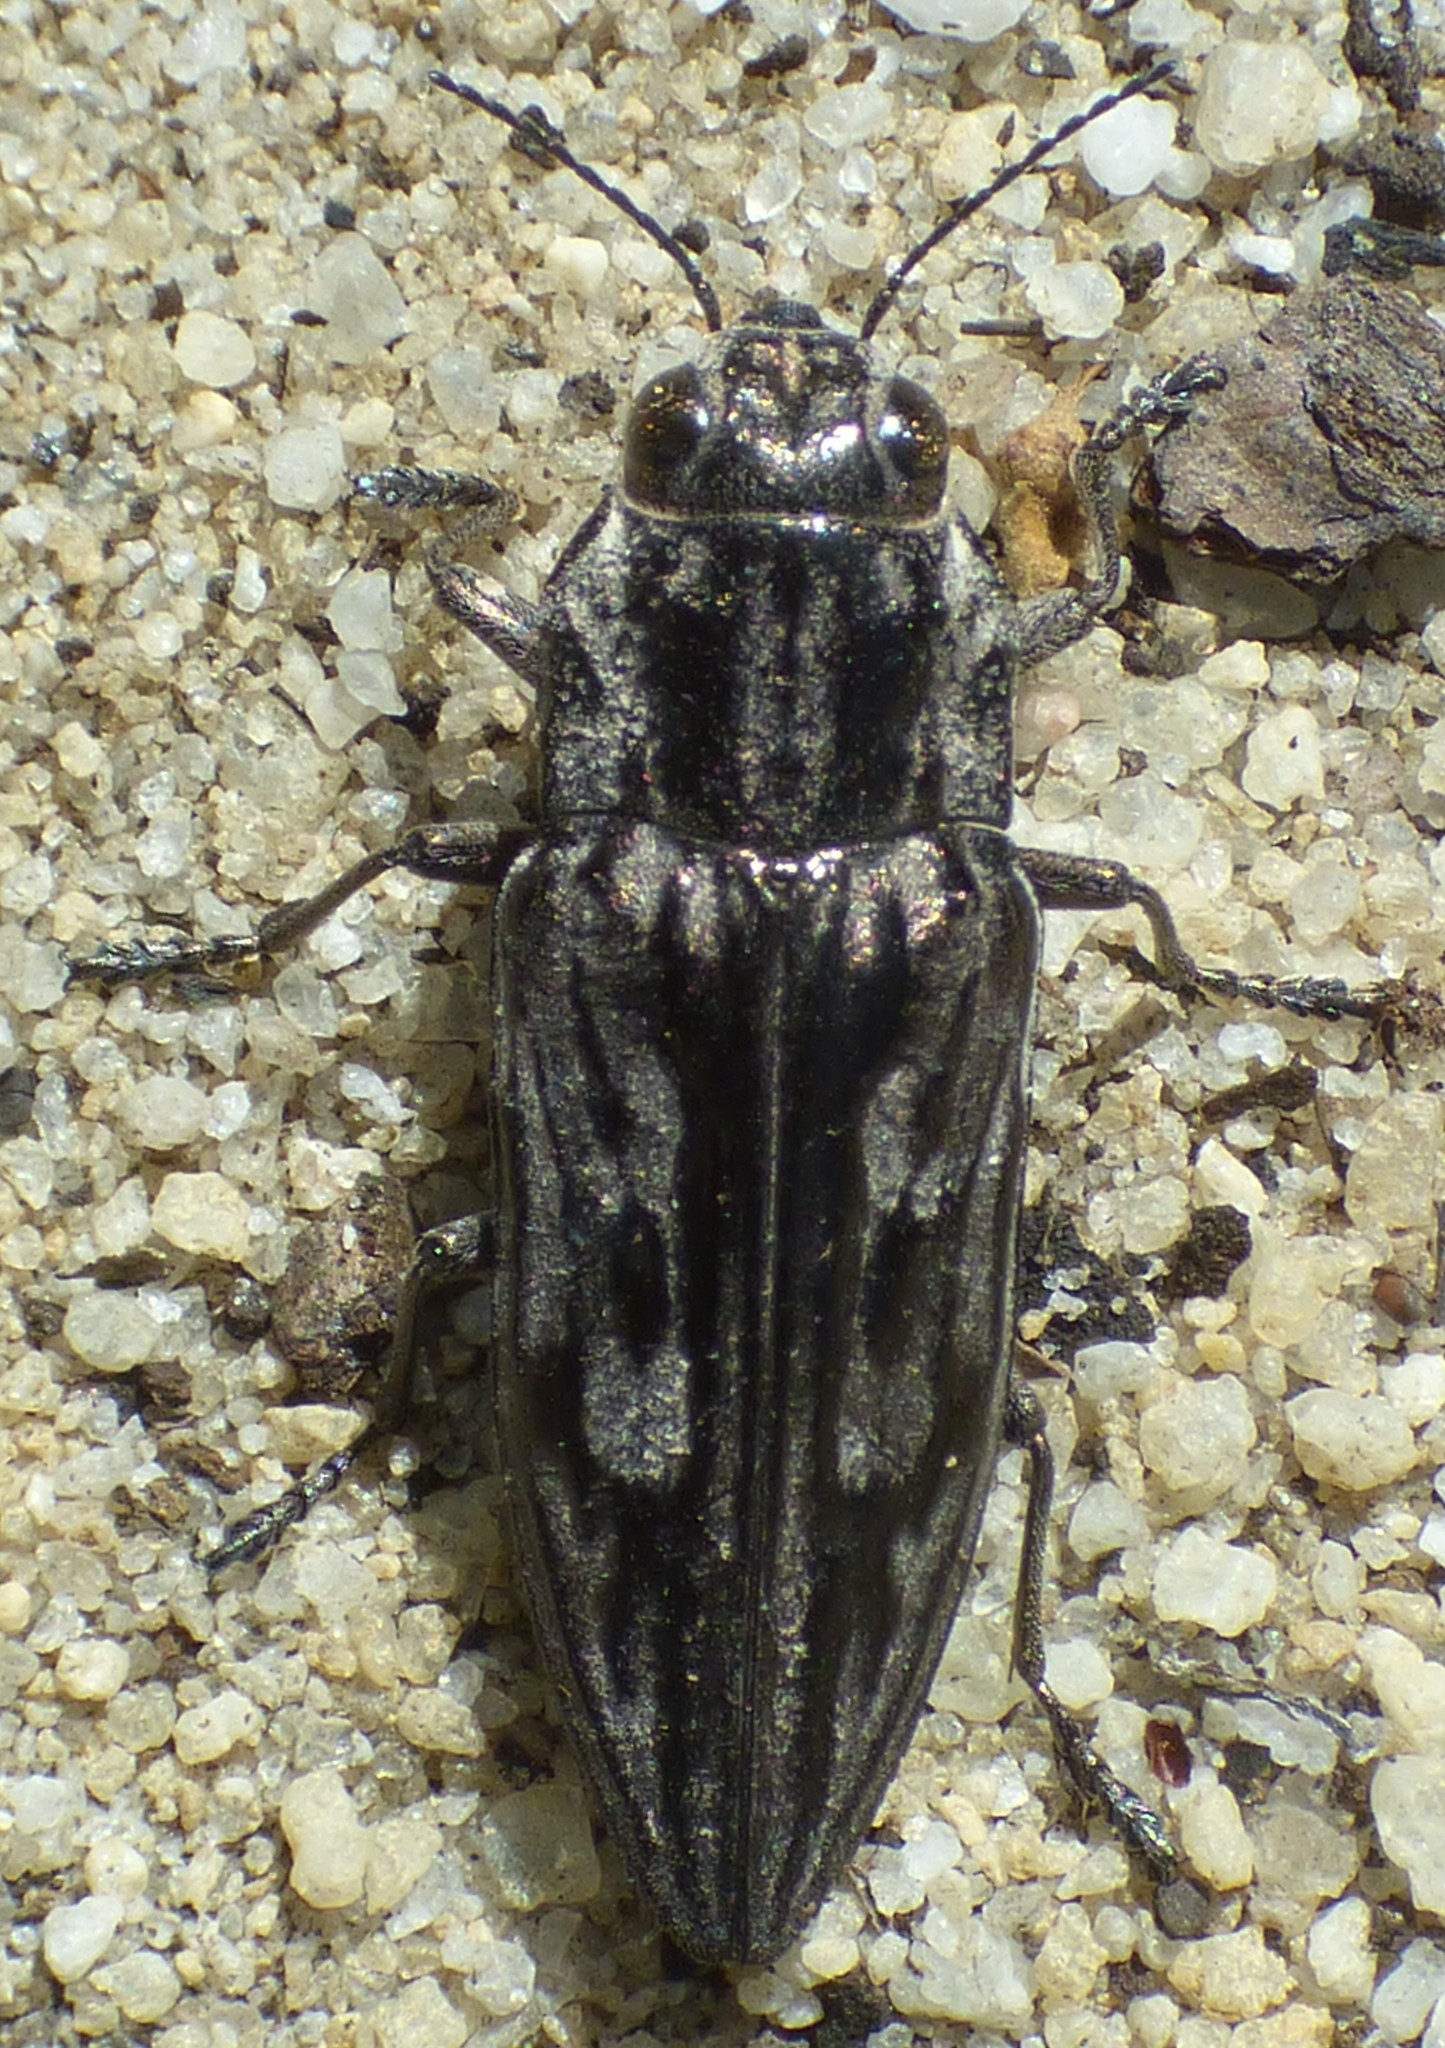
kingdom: Animalia
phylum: Arthropoda
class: Insecta
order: Coleoptera
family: Buprestidae
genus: Chalcophora
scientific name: Chalcophora virginiensis
